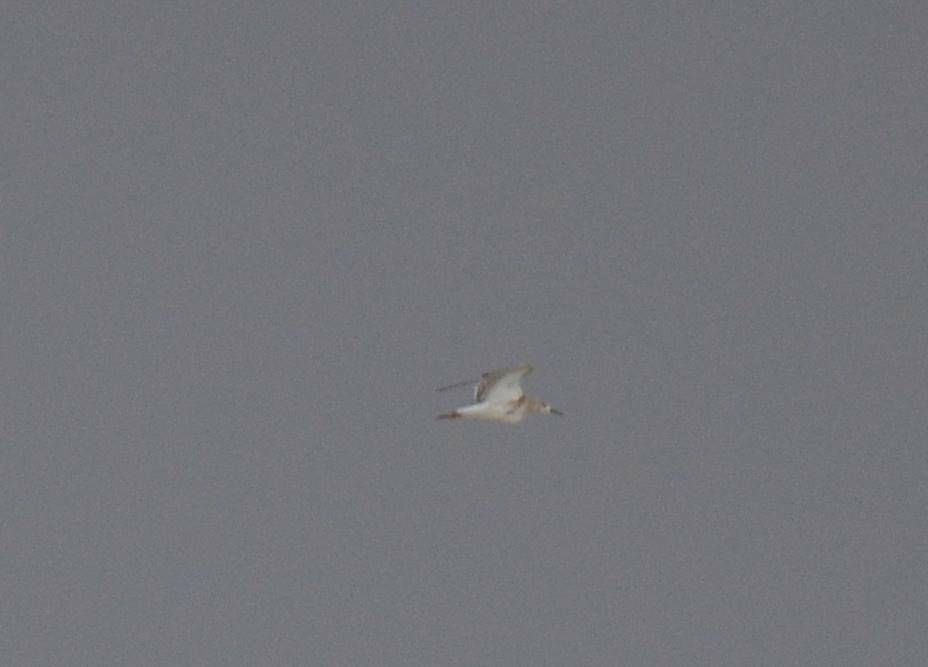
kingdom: Animalia
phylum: Chordata
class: Aves
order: Charadriiformes
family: Scolopacidae
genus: Calidris
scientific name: Calidris pugnax
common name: Ruff
